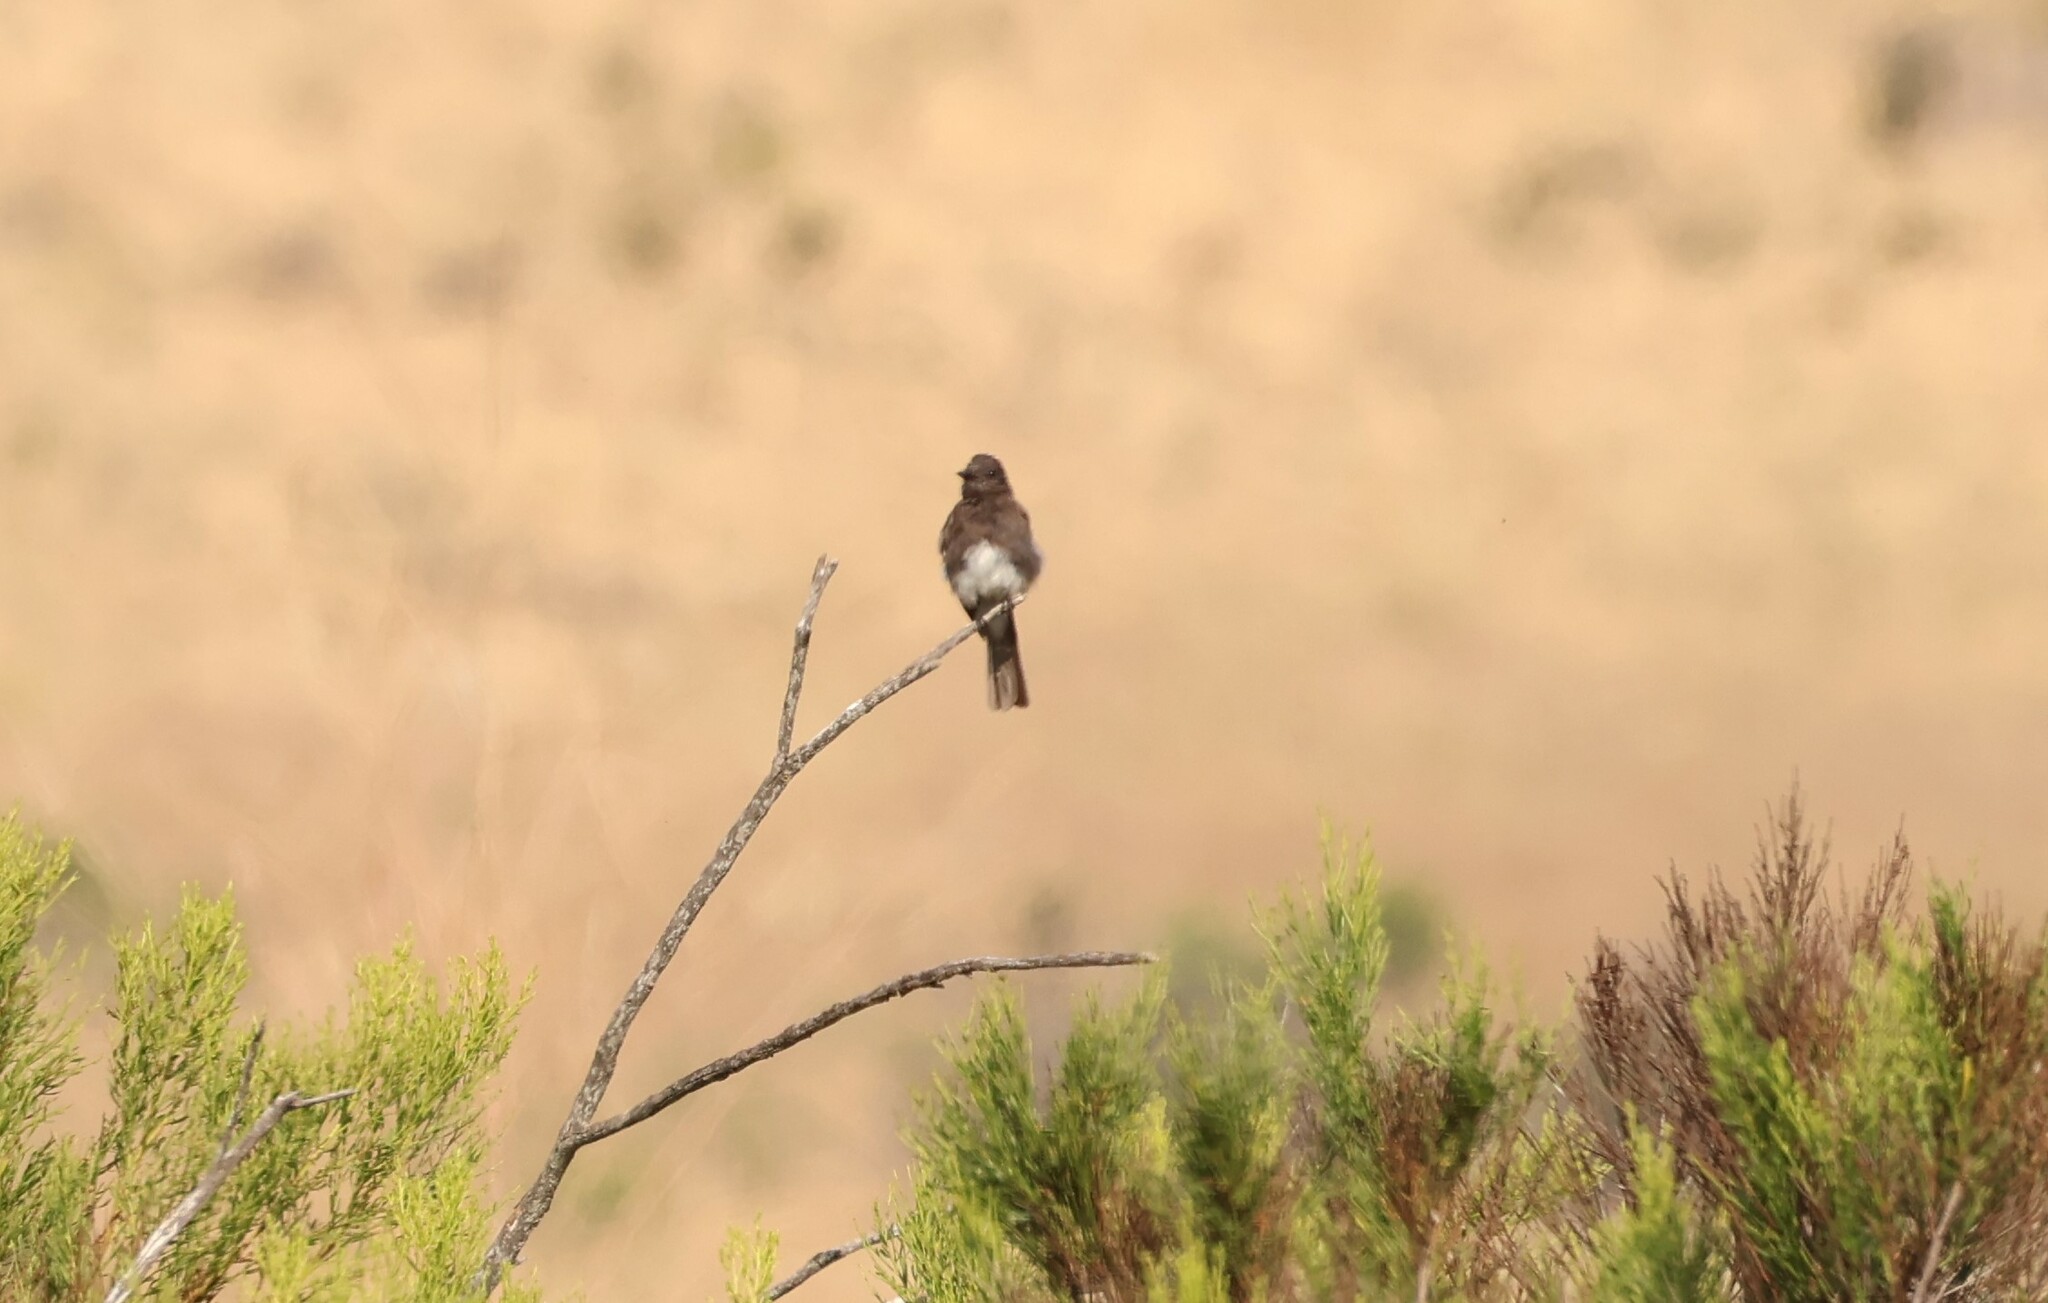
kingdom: Animalia
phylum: Chordata
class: Aves
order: Passeriformes
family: Tyrannidae
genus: Sayornis
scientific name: Sayornis nigricans
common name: Black phoebe
